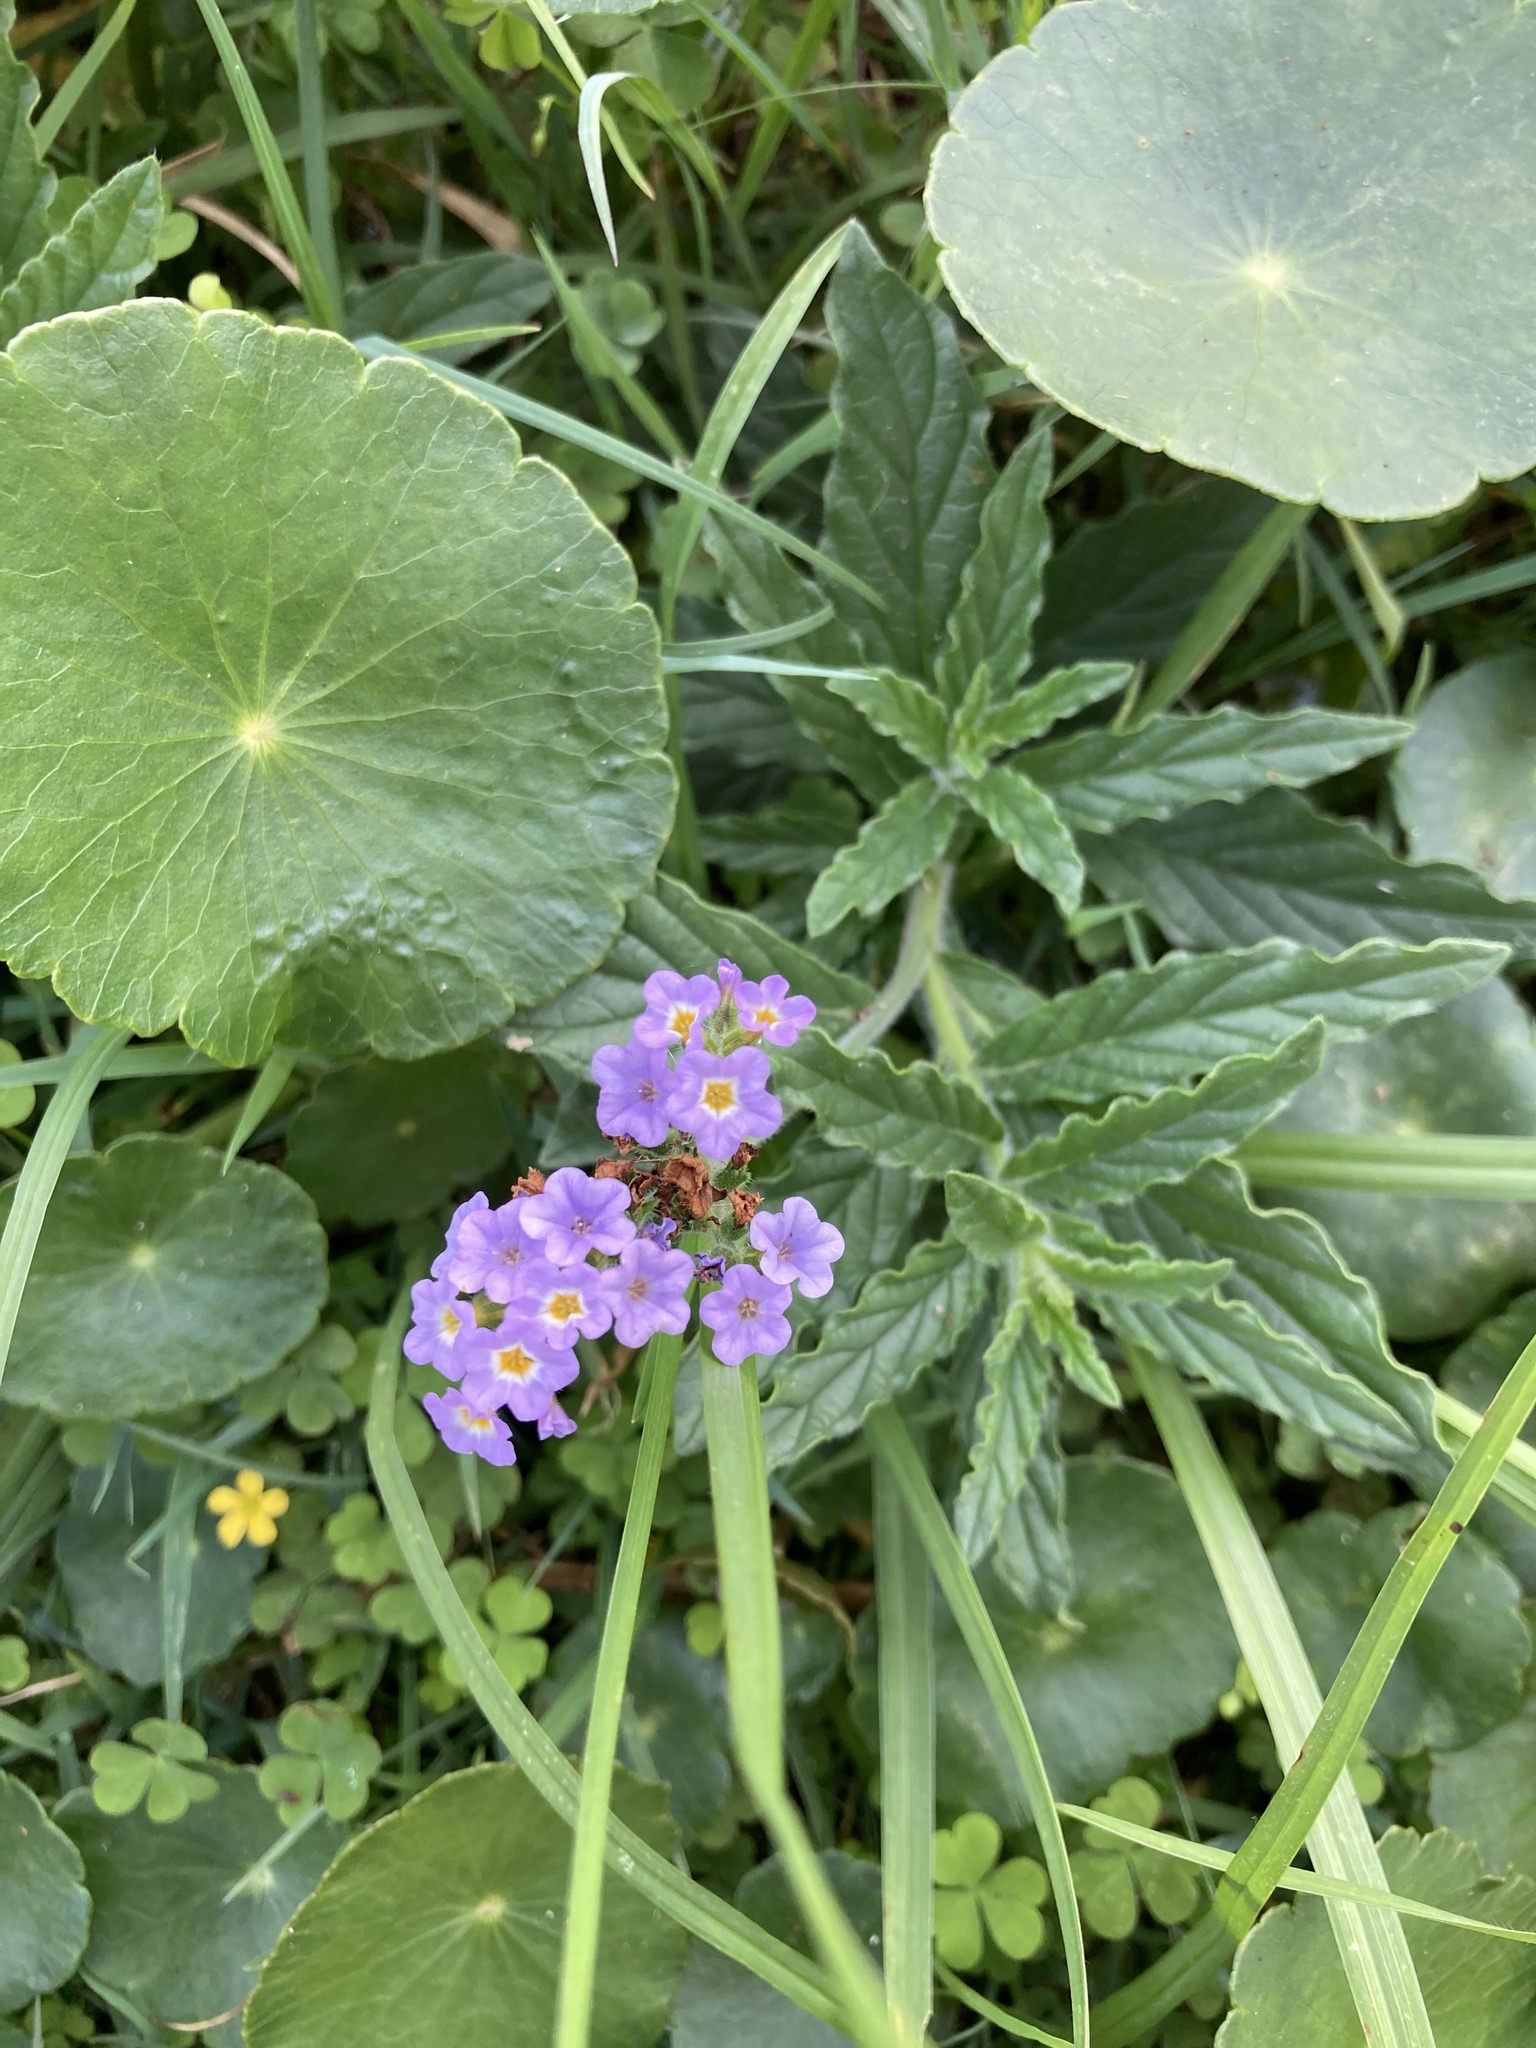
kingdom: Plantae
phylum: Tracheophyta
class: Magnoliopsida
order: Boraginales
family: Heliotropiaceae
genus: Heliotropium
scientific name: Heliotropium amplexicaule
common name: Clasping heliotrope
